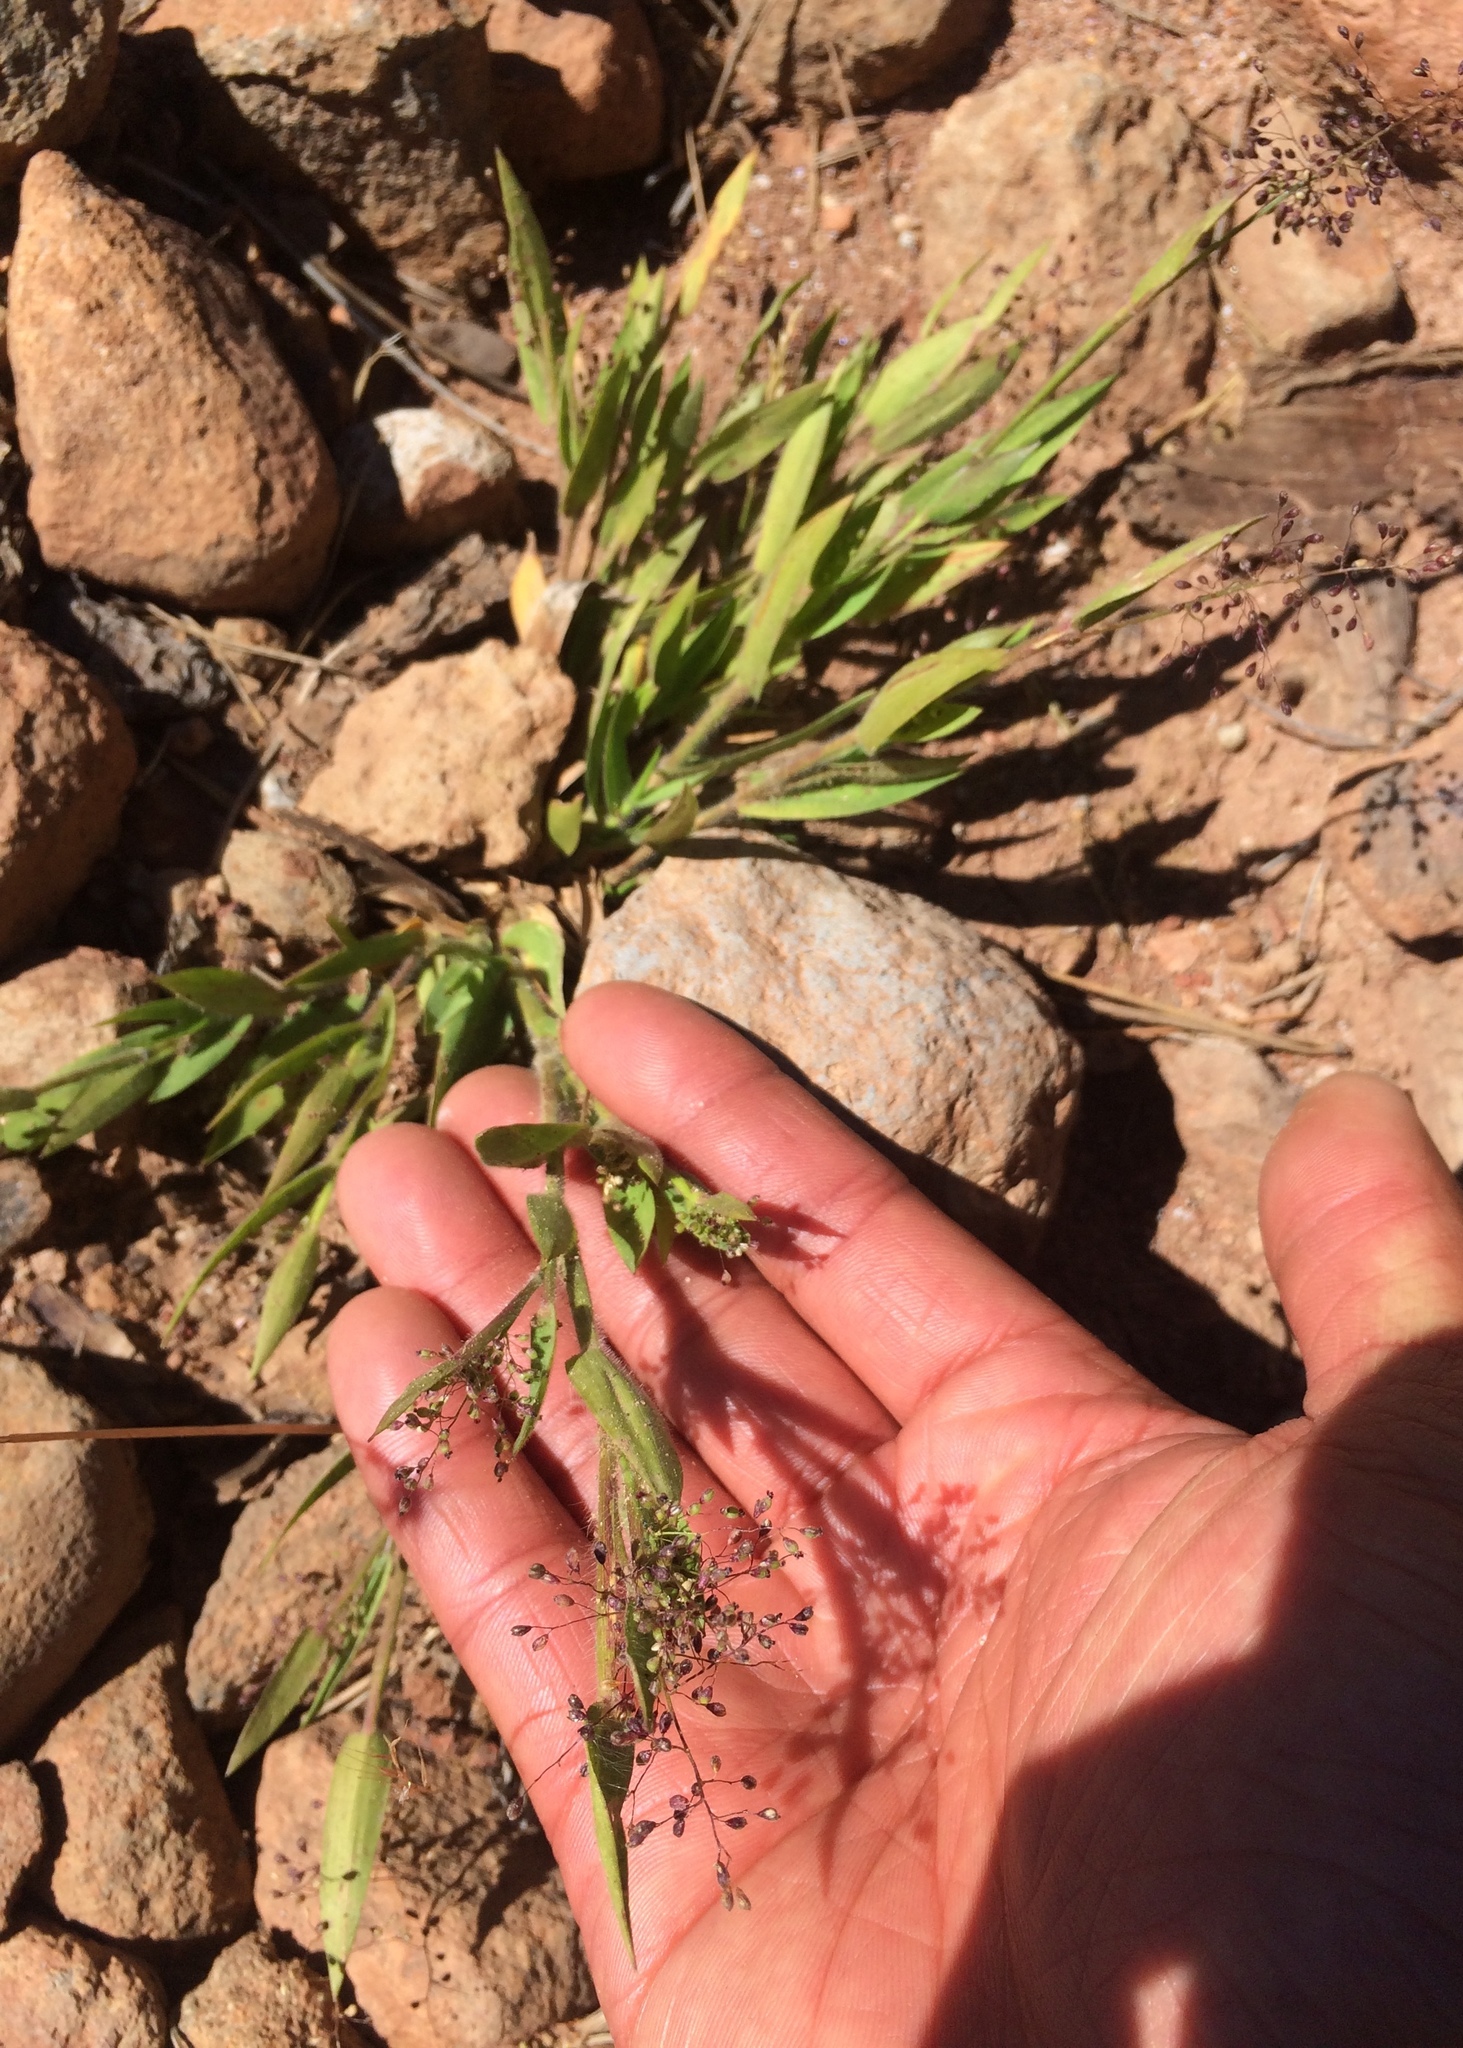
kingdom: Plantae
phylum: Tracheophyta
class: Liliopsida
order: Poales
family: Poaceae
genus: Dichanthelium
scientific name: Dichanthelium thermale
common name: Geyser panicgrass
